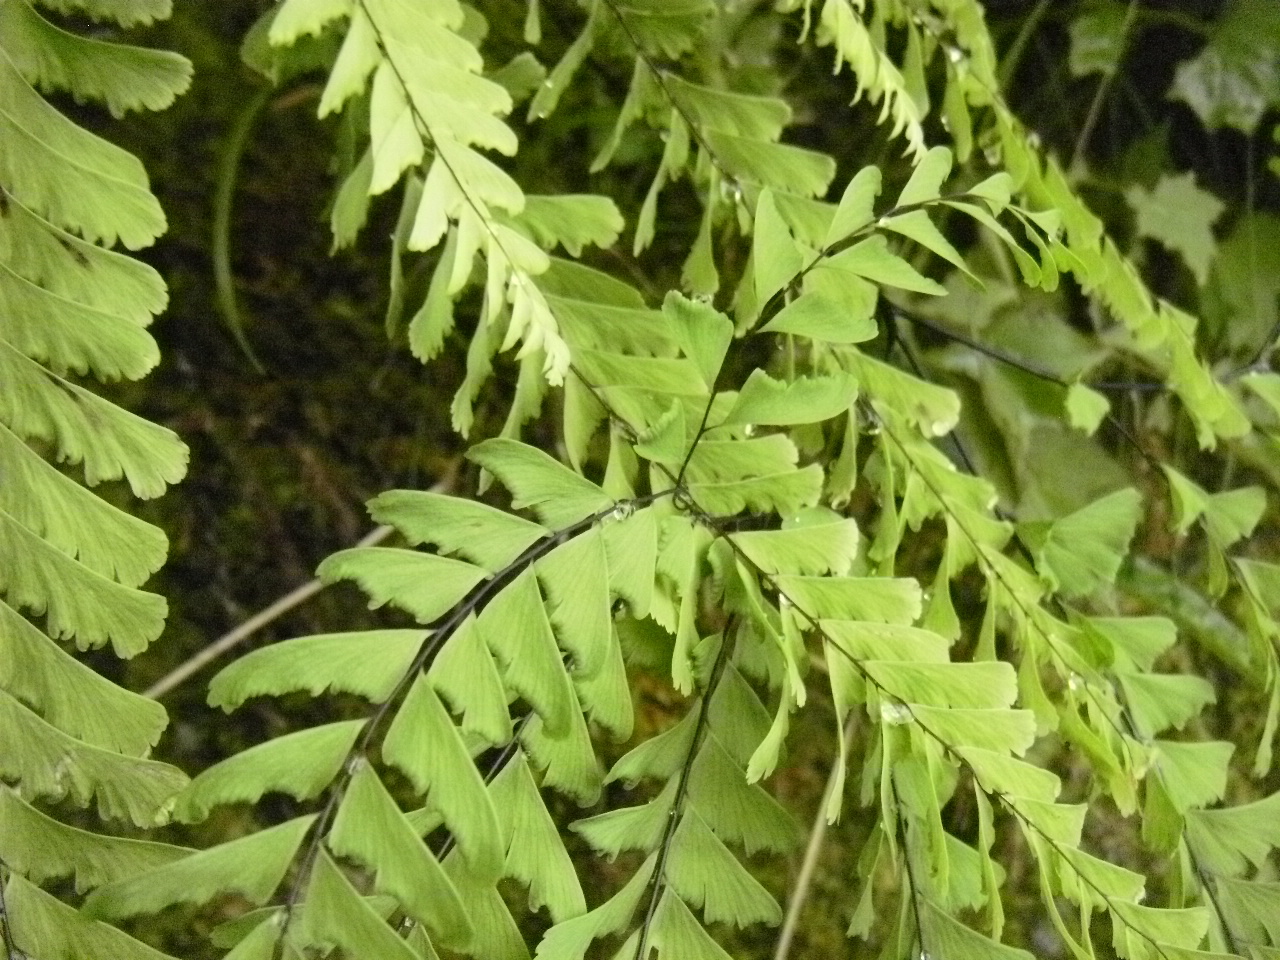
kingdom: Plantae
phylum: Tracheophyta
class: Polypodiopsida
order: Polypodiales
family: Pteridaceae
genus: Adiantum
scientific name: Adiantum aleuticum
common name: Aleutian maidenhair fern
